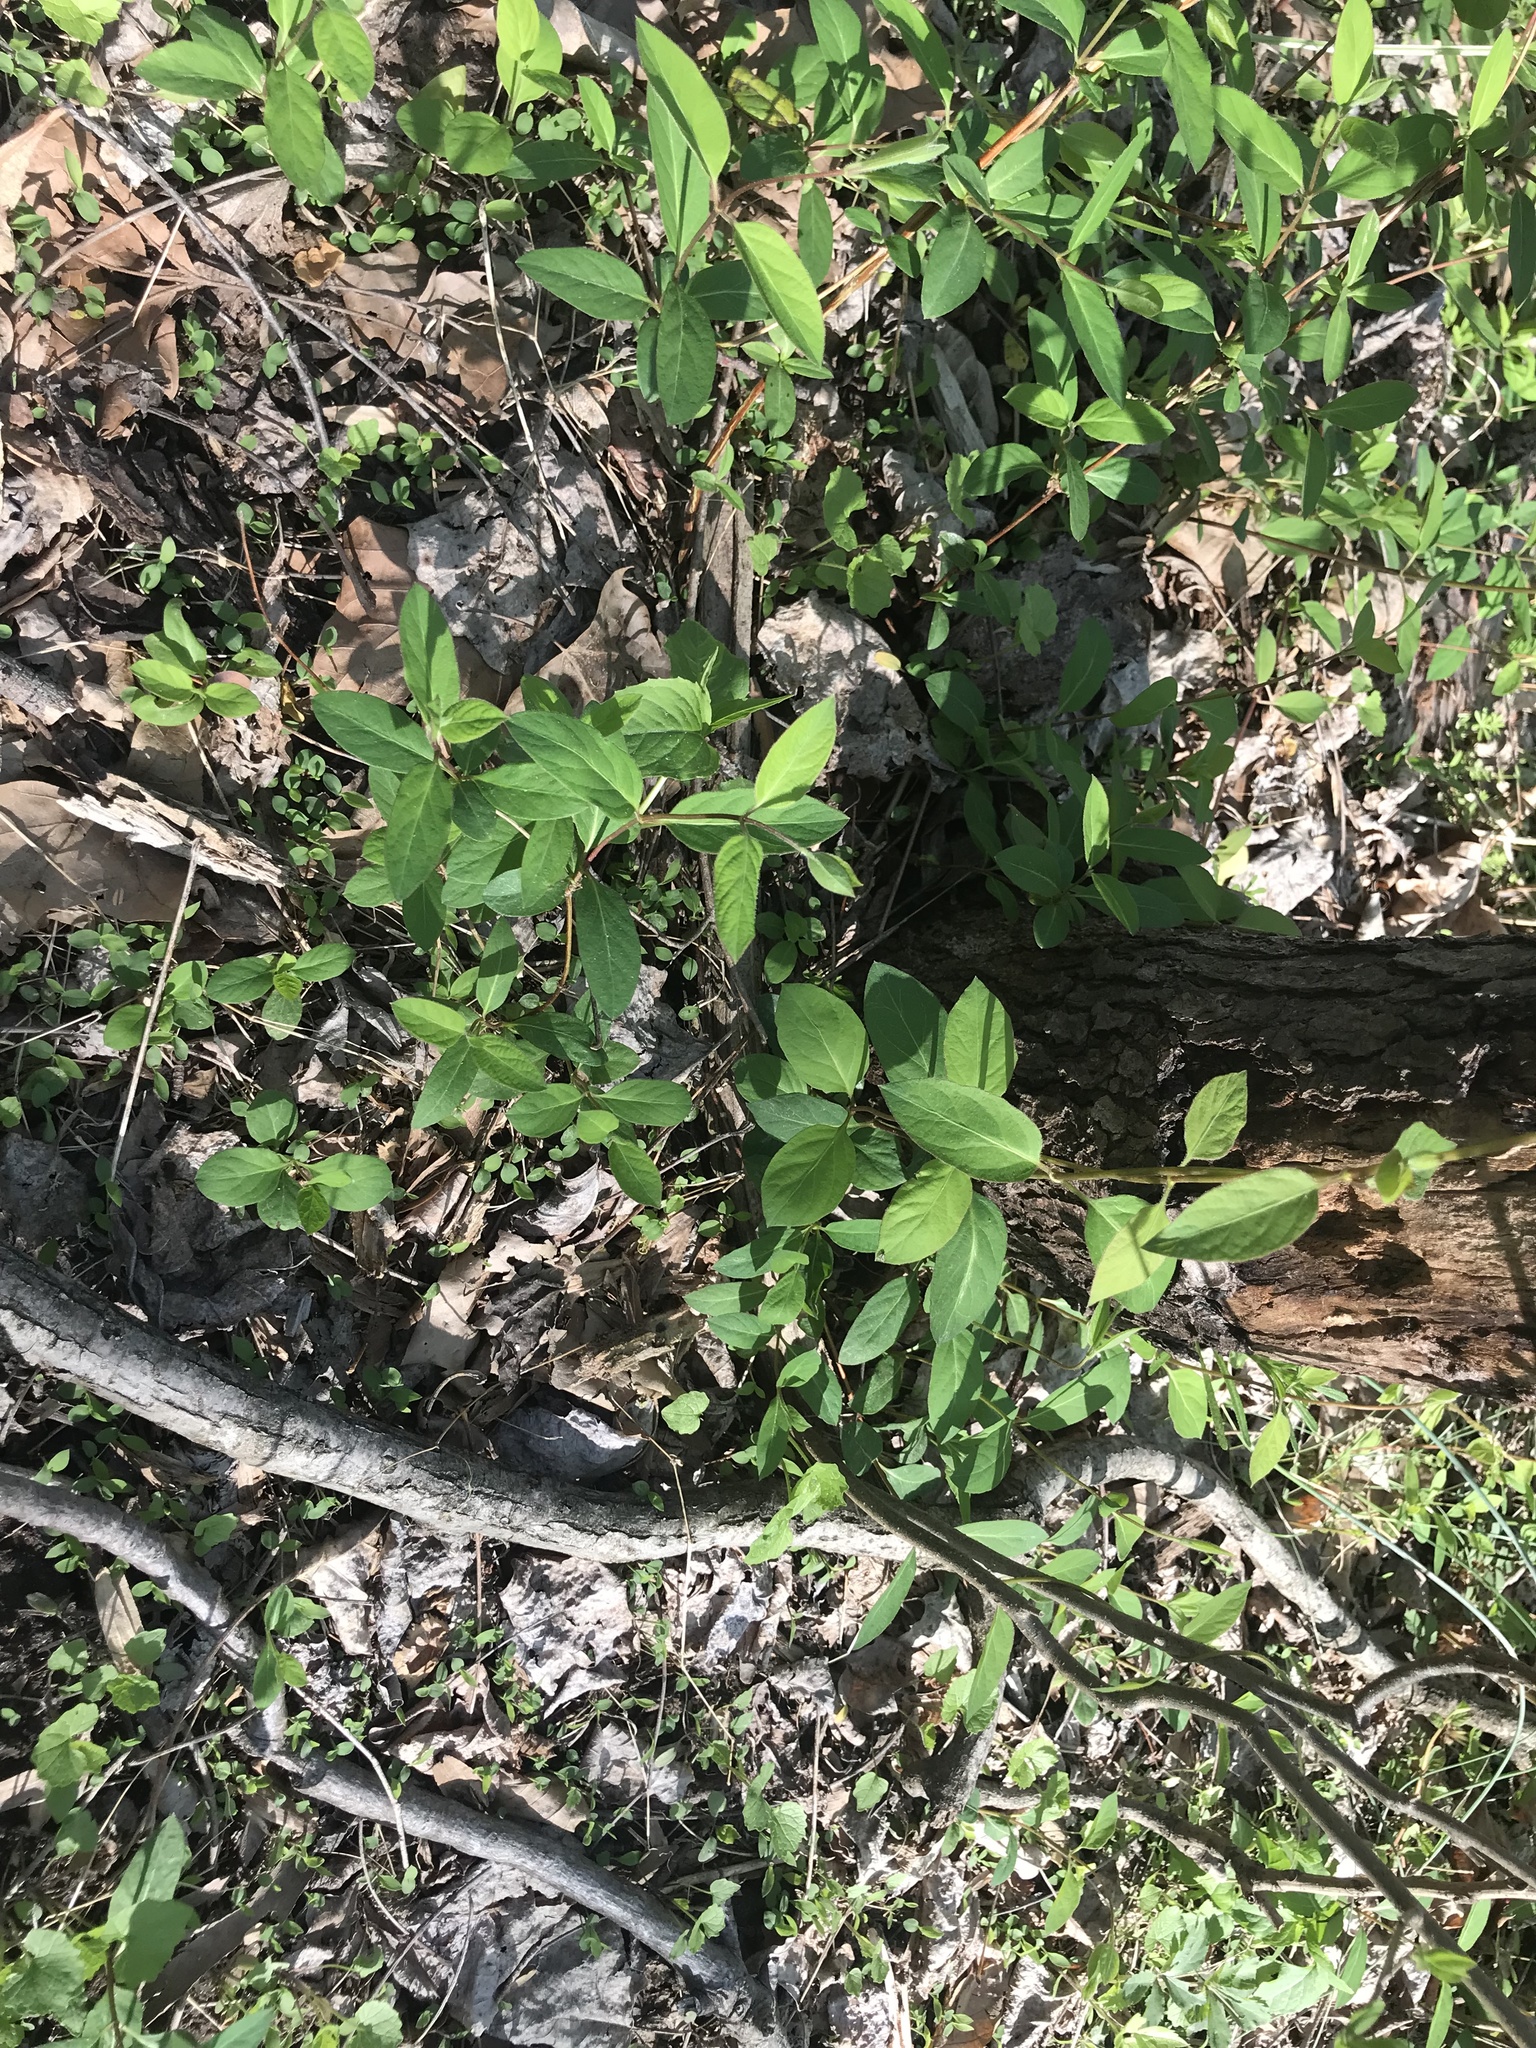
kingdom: Plantae
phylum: Tracheophyta
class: Magnoliopsida
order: Dipsacales
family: Caprifoliaceae
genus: Lonicera
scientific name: Lonicera japonica
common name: Japanese honeysuckle
